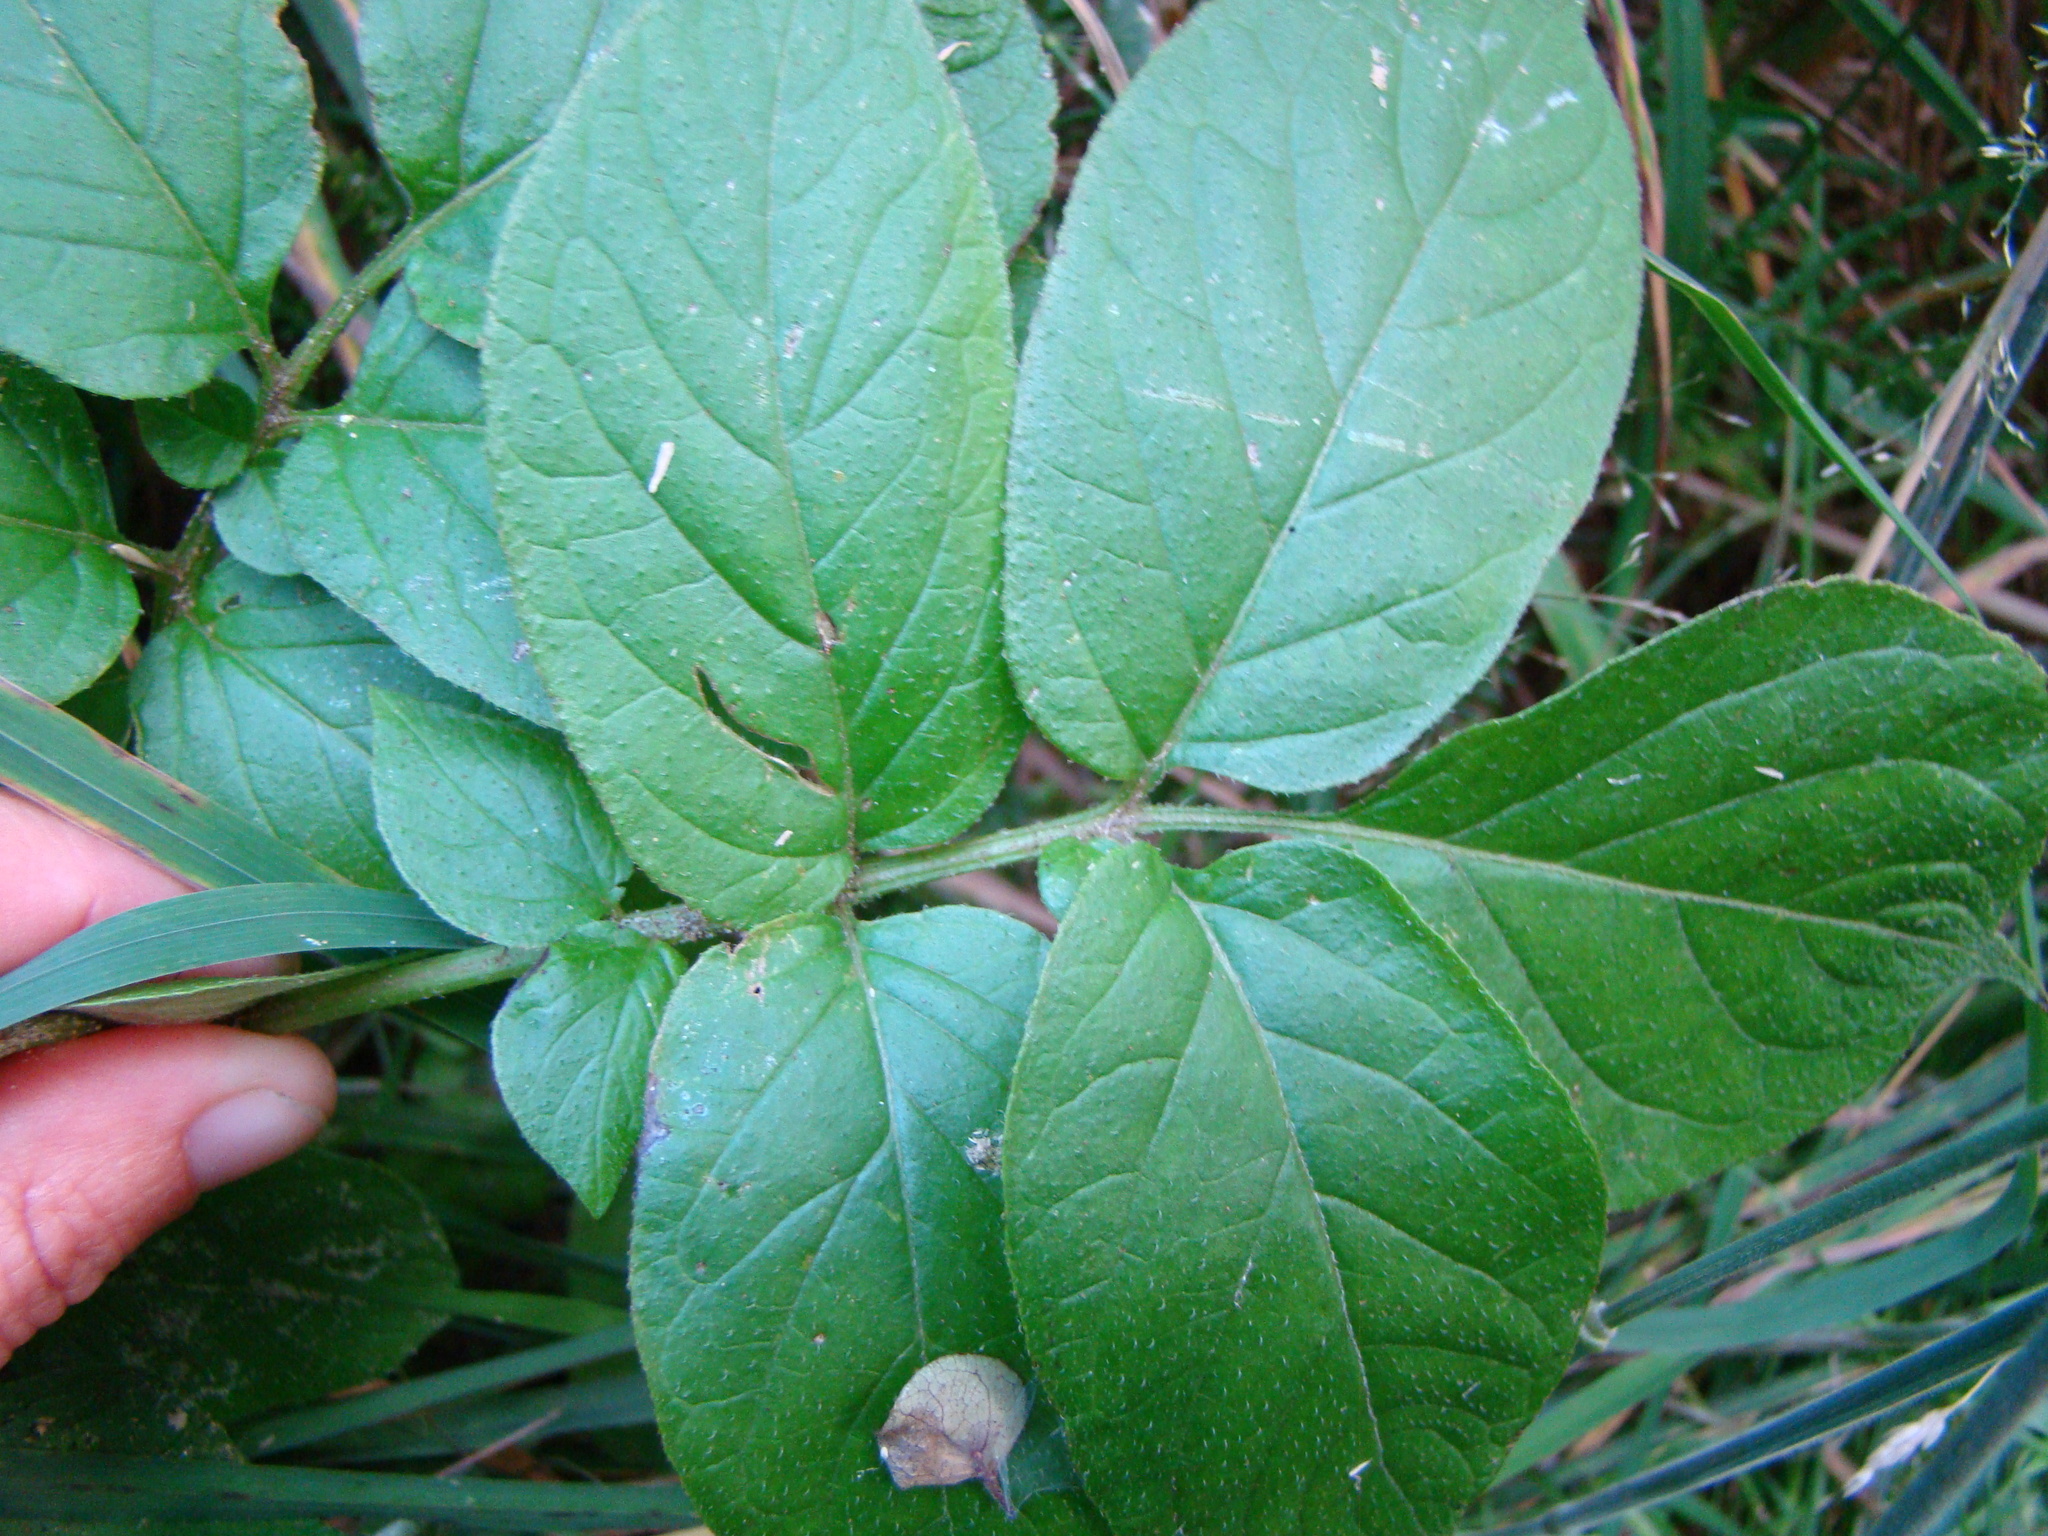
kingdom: Plantae
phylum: Tracheophyta
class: Magnoliopsida
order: Solanales
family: Solanaceae
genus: Solanum
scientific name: Solanum tuberosum
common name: Potato
